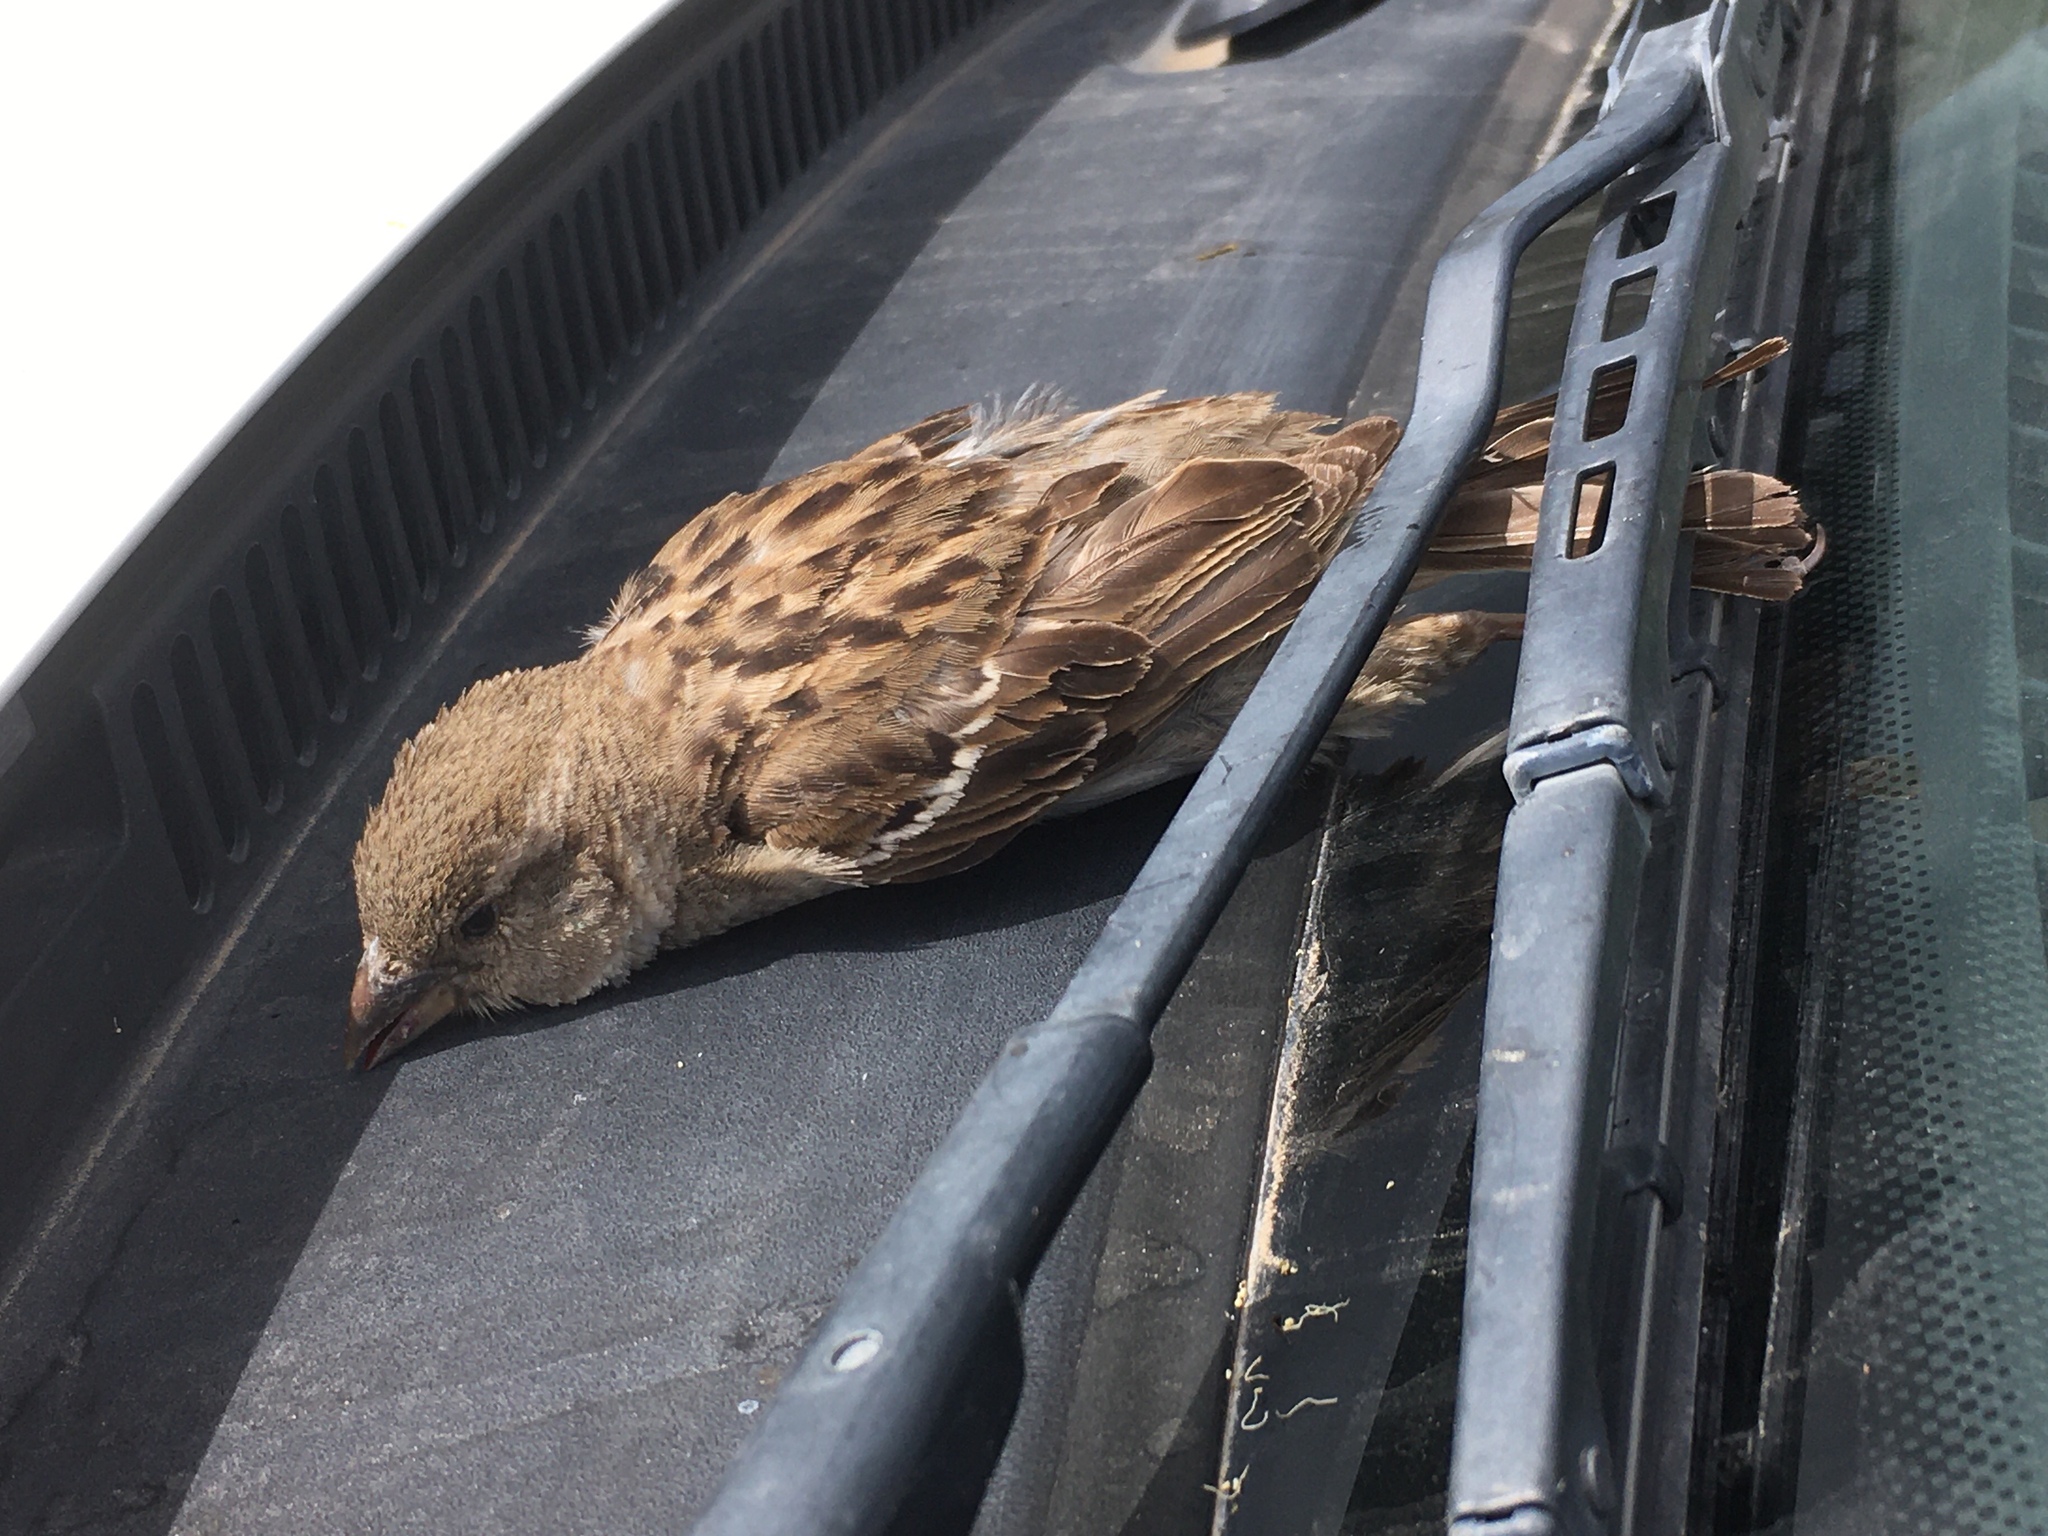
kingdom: Animalia
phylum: Chordata
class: Aves
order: Passeriformes
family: Passeridae
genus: Passer
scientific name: Passer domesticus
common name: House sparrow
